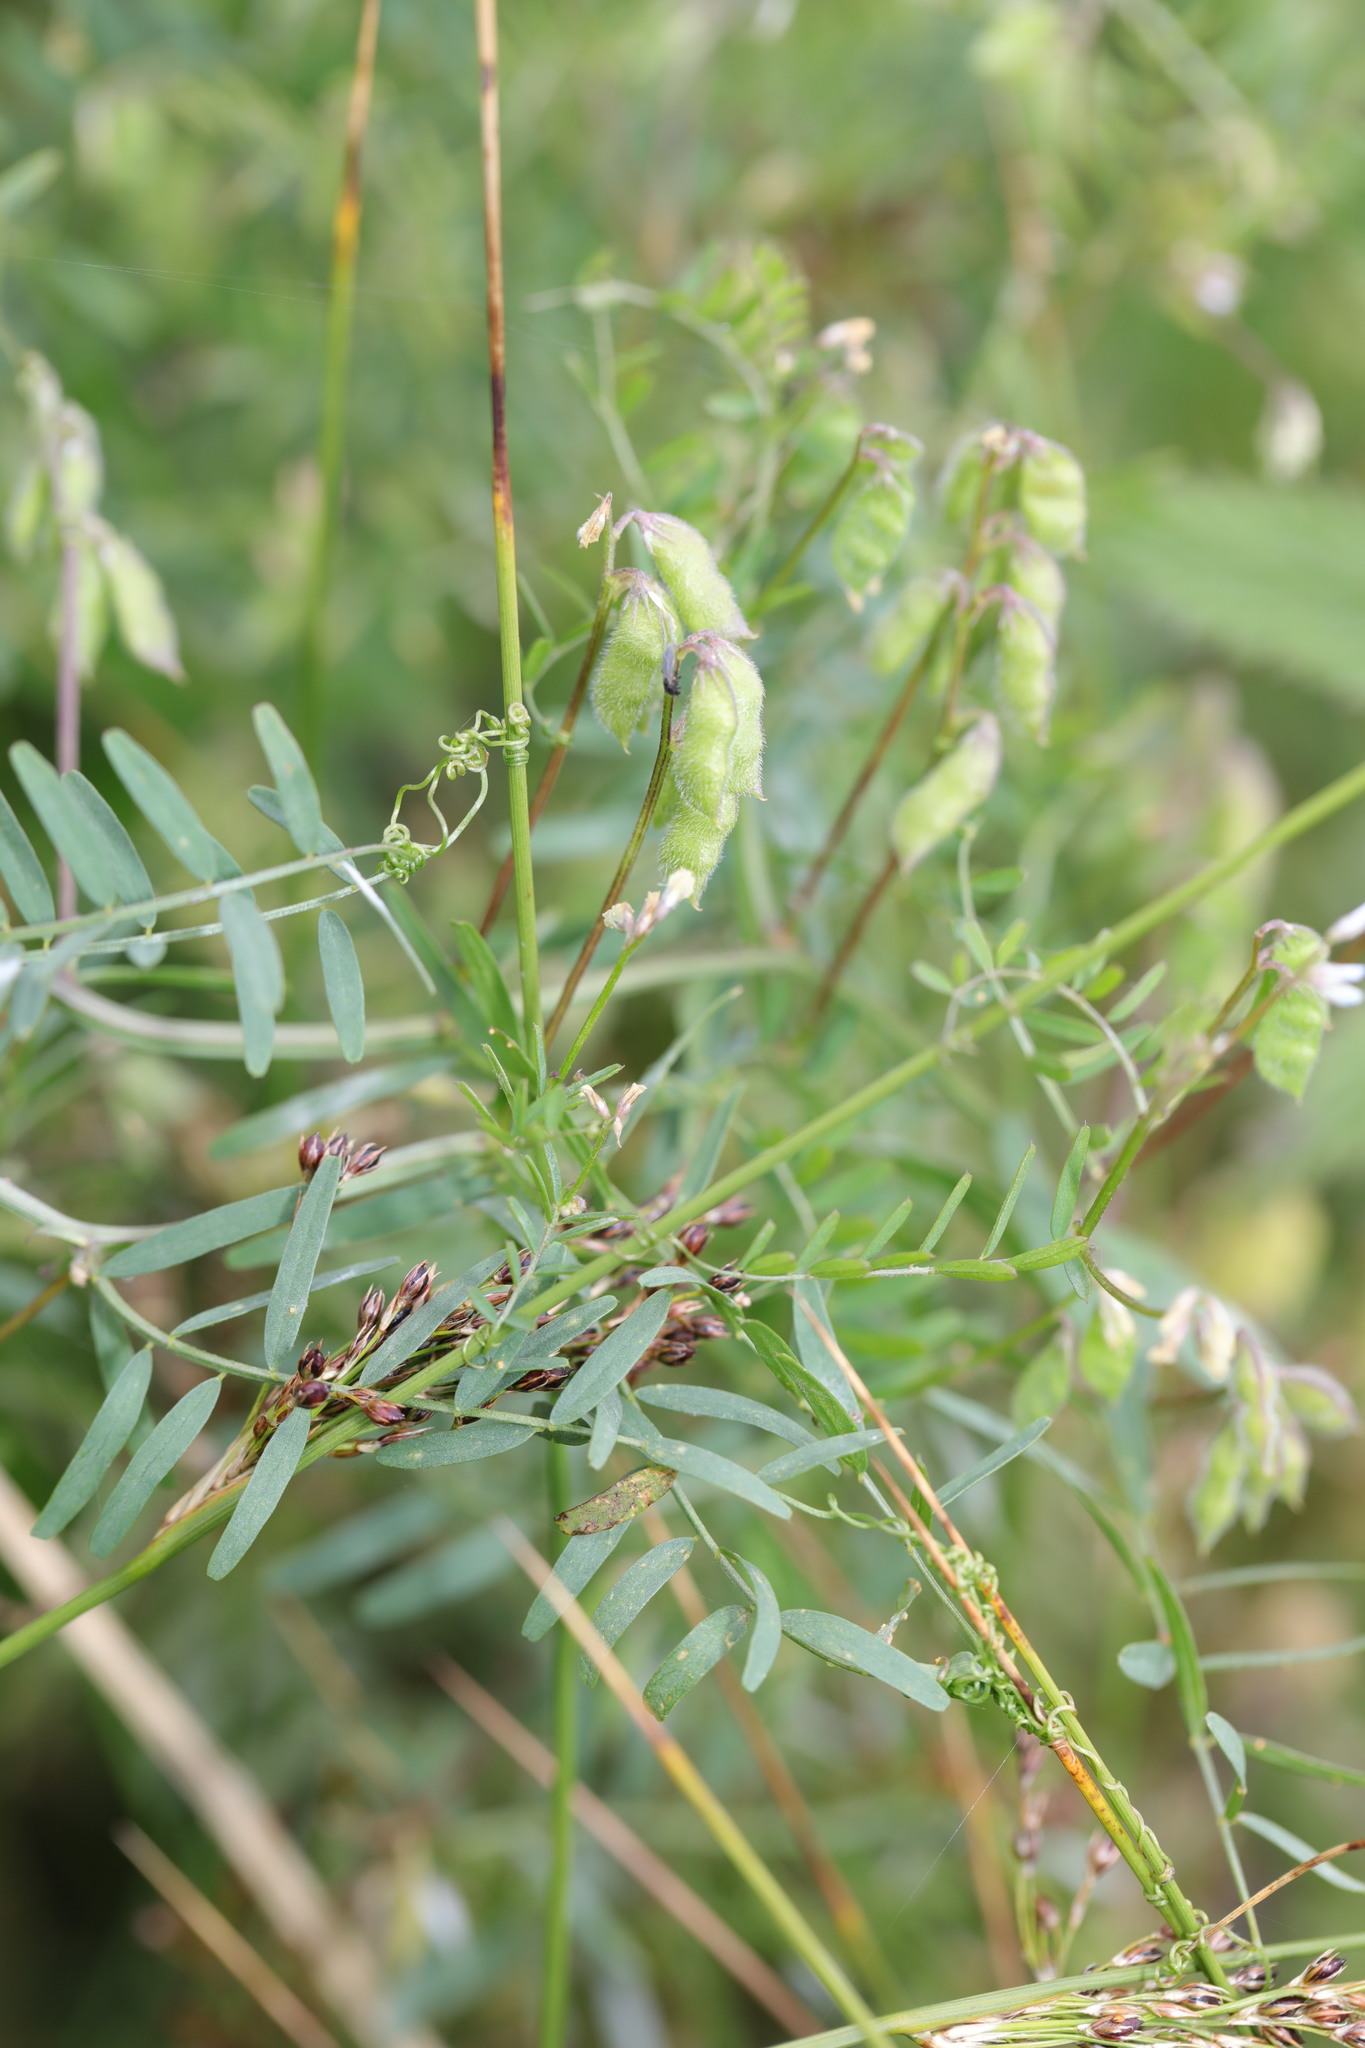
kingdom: Plantae
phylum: Tracheophyta
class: Magnoliopsida
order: Fabales
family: Fabaceae
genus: Vicia
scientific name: Vicia hirsuta
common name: Tiny vetch
